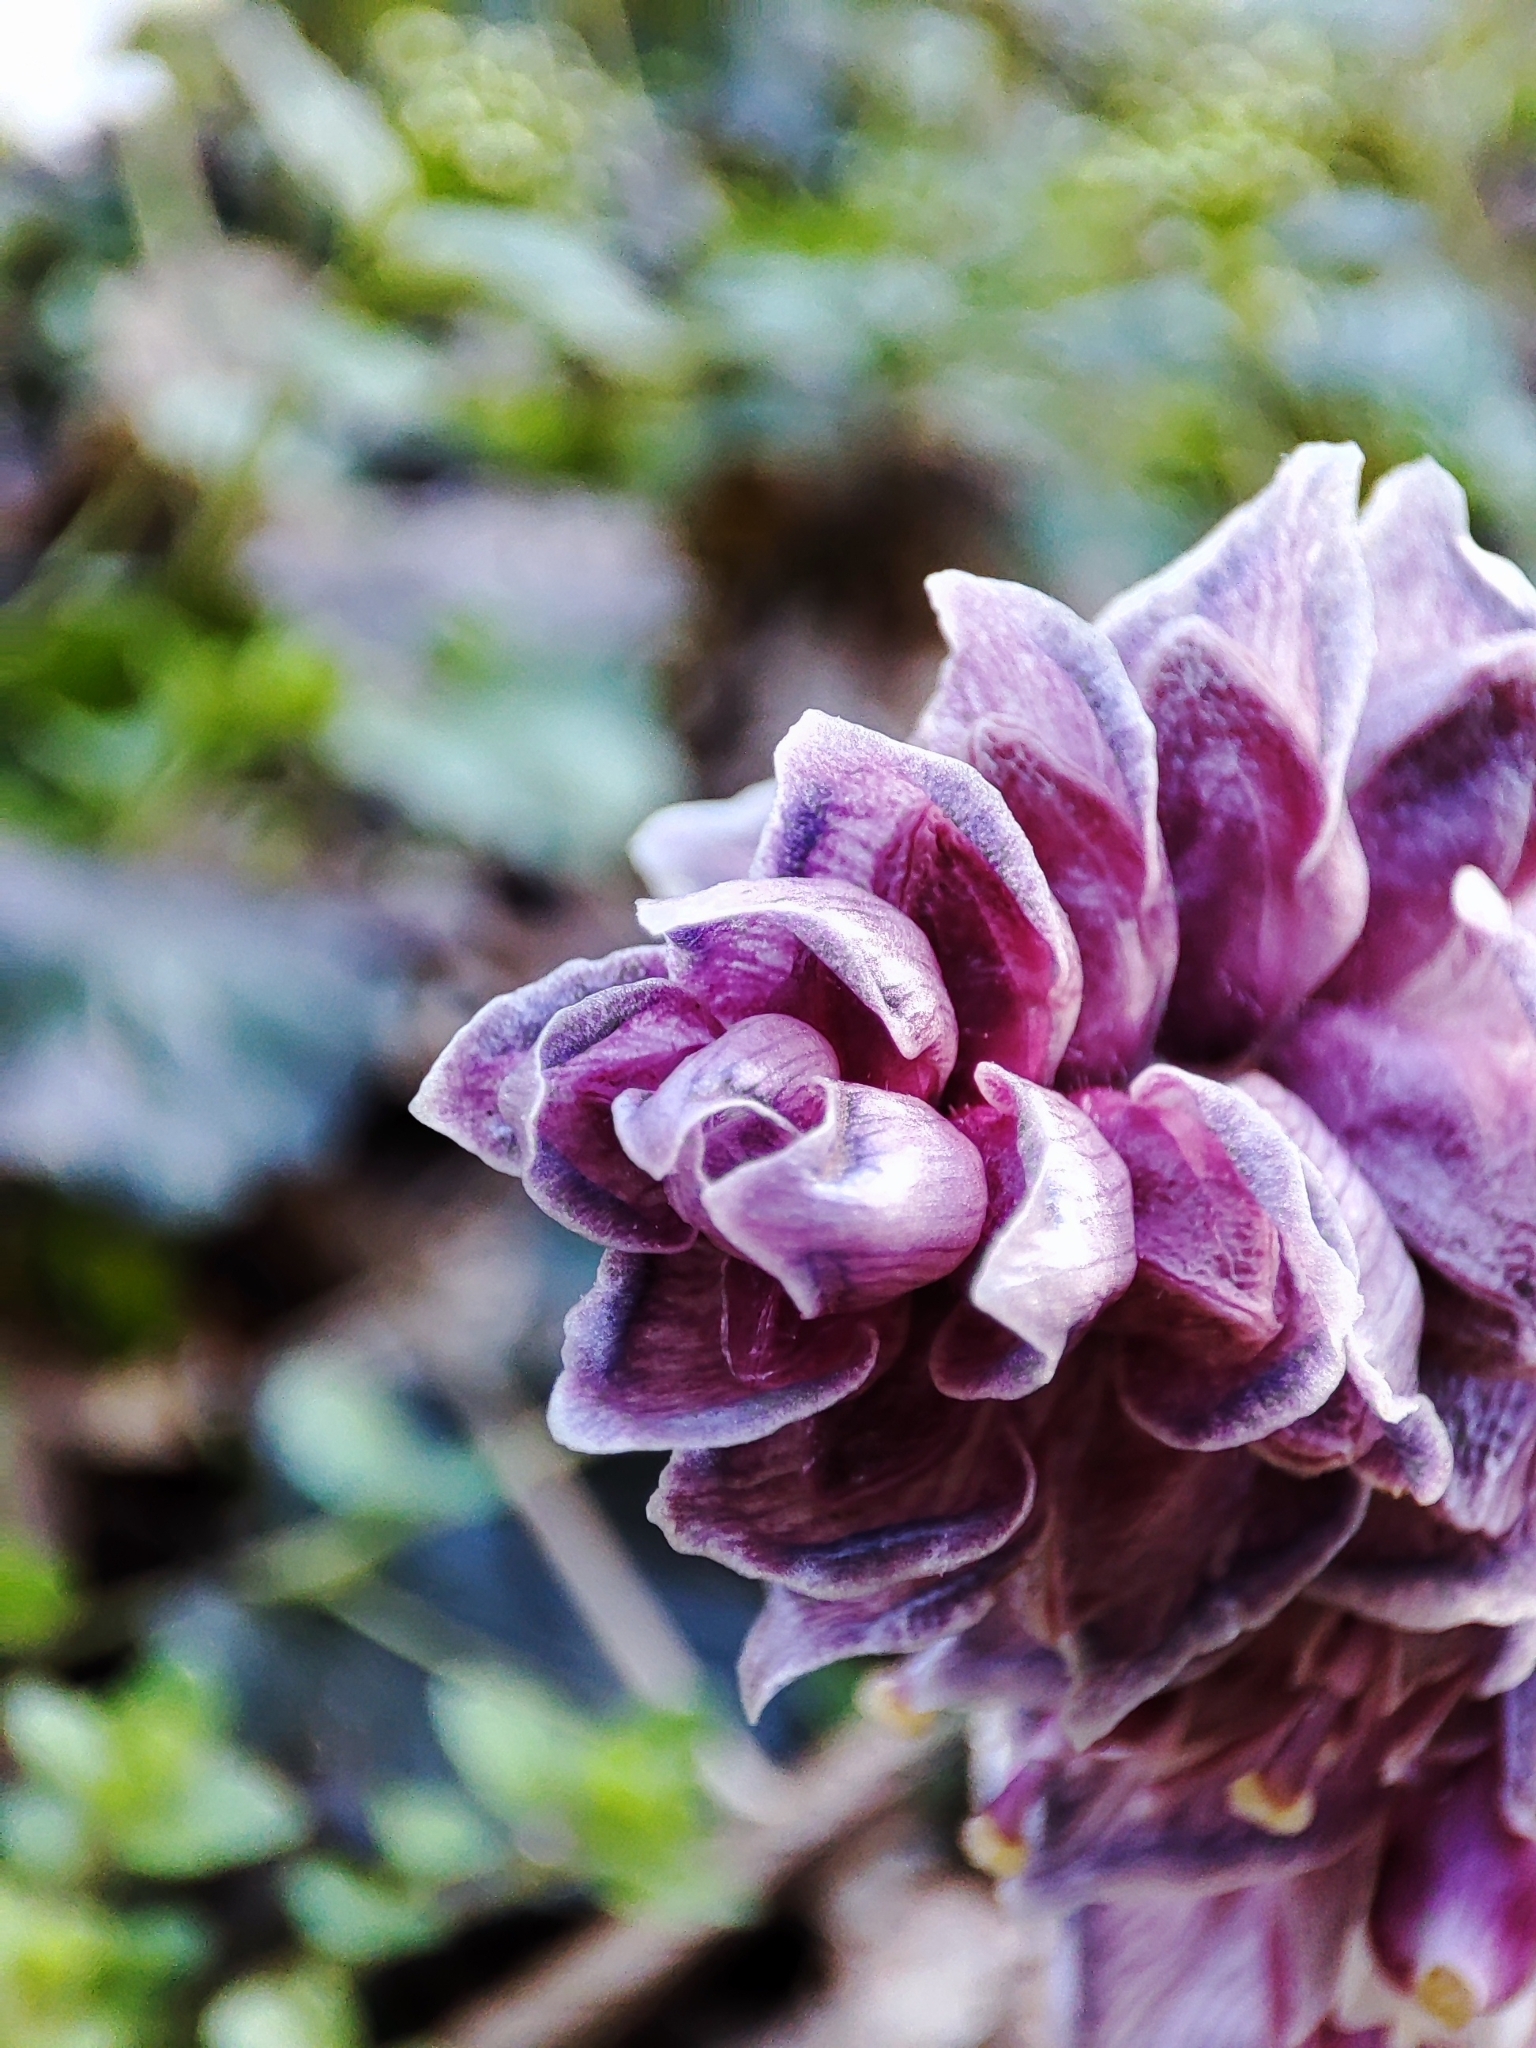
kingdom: Plantae
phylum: Tracheophyta
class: Magnoliopsida
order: Lamiales
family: Orobanchaceae
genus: Lathraea
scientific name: Lathraea squamaria
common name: Toothwort
